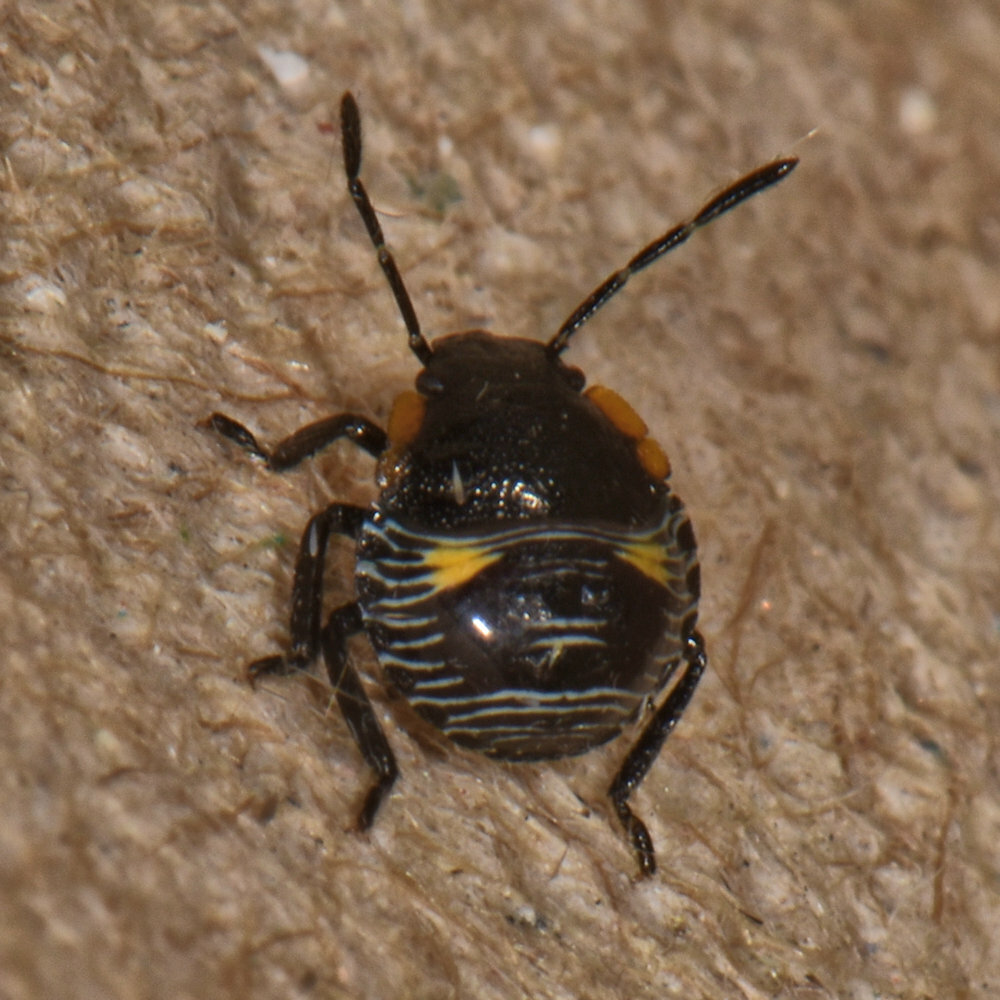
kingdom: Animalia
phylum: Arthropoda
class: Insecta
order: Hemiptera
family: Pentatomidae
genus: Chinavia
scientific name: Chinavia hilaris
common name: Green stink bug
